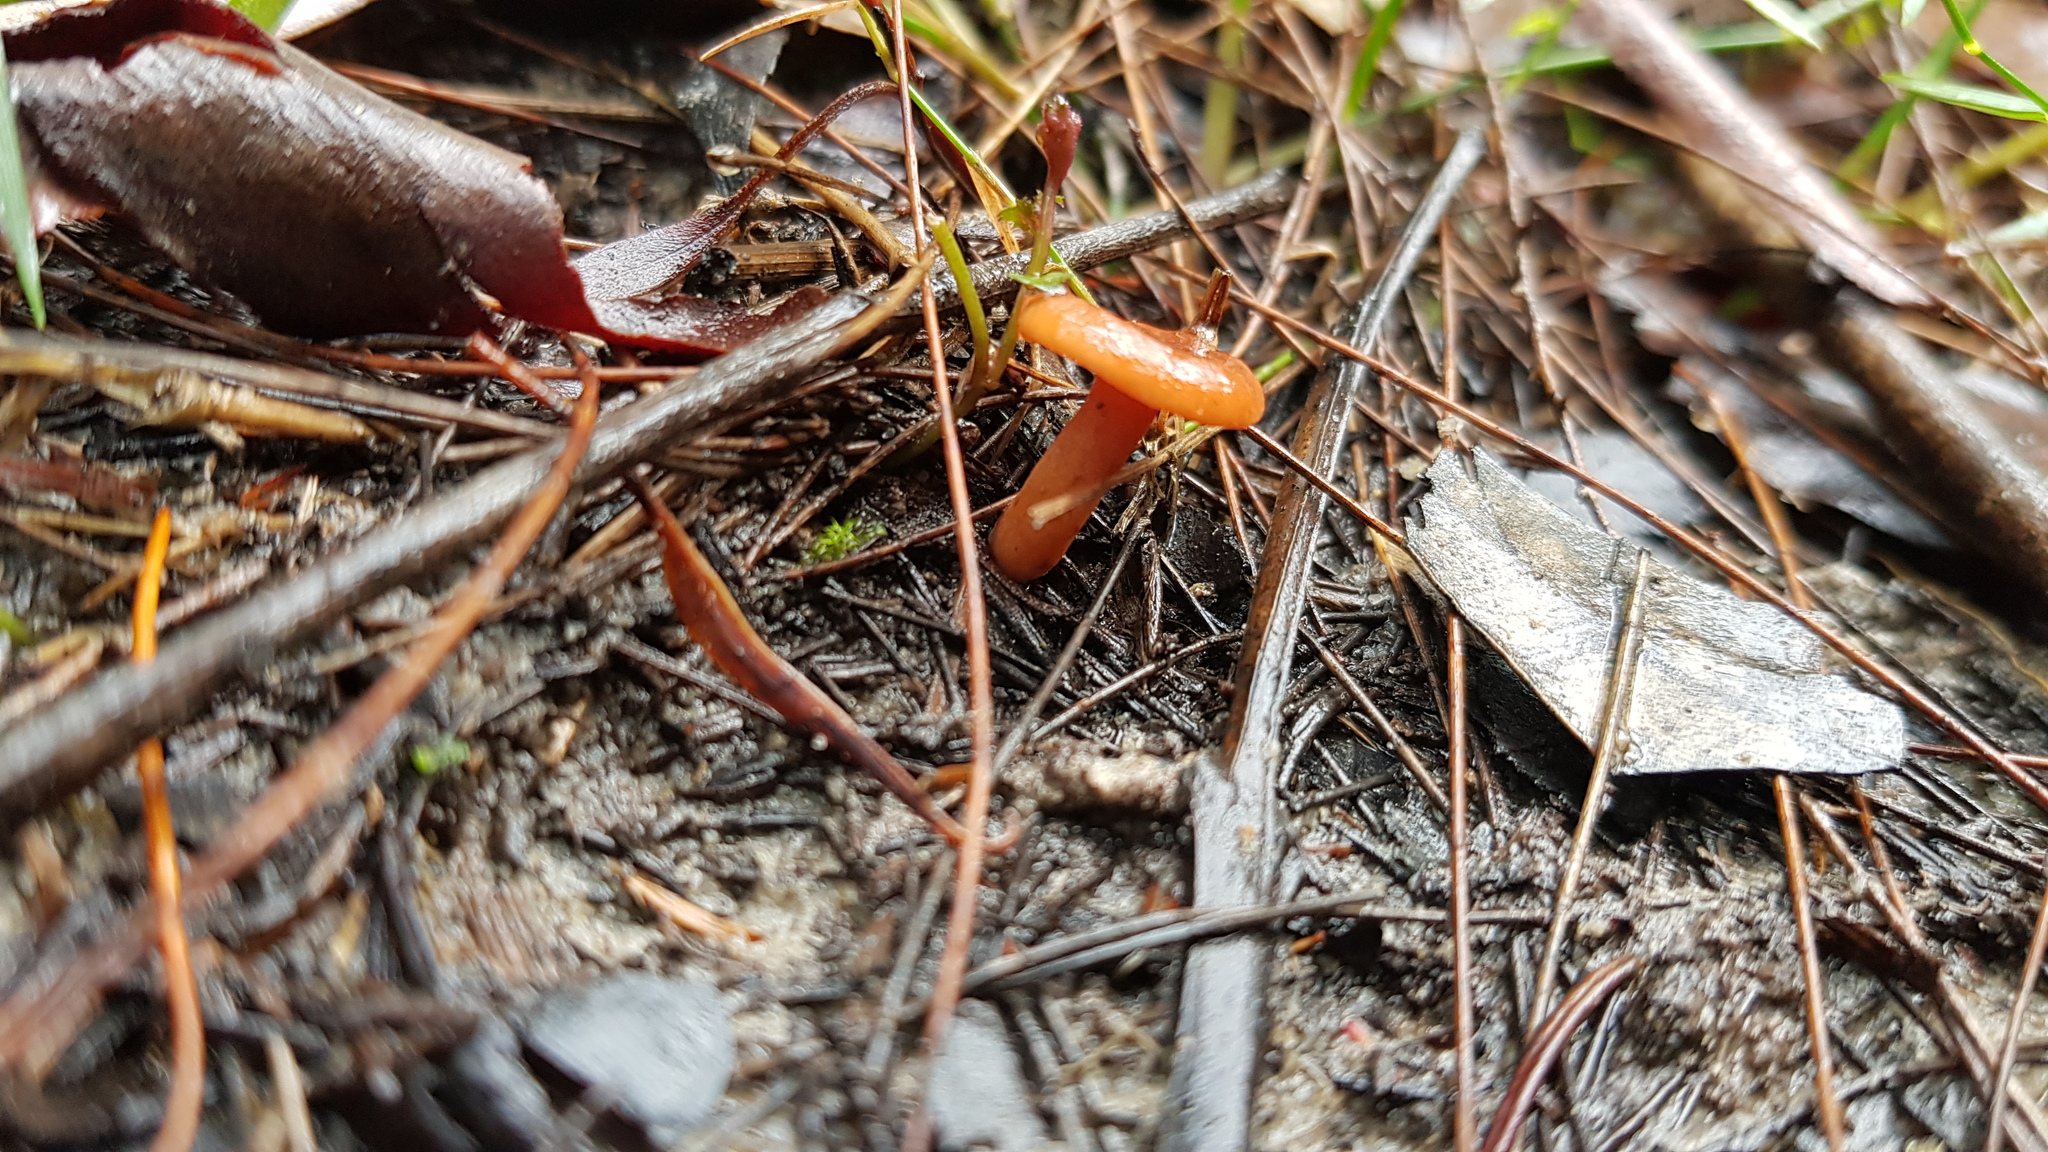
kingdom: Fungi
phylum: Basidiomycota
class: Agaricomycetes
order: Russulales
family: Russulaceae
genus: Lactarius
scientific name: Lactarius eucalypti
